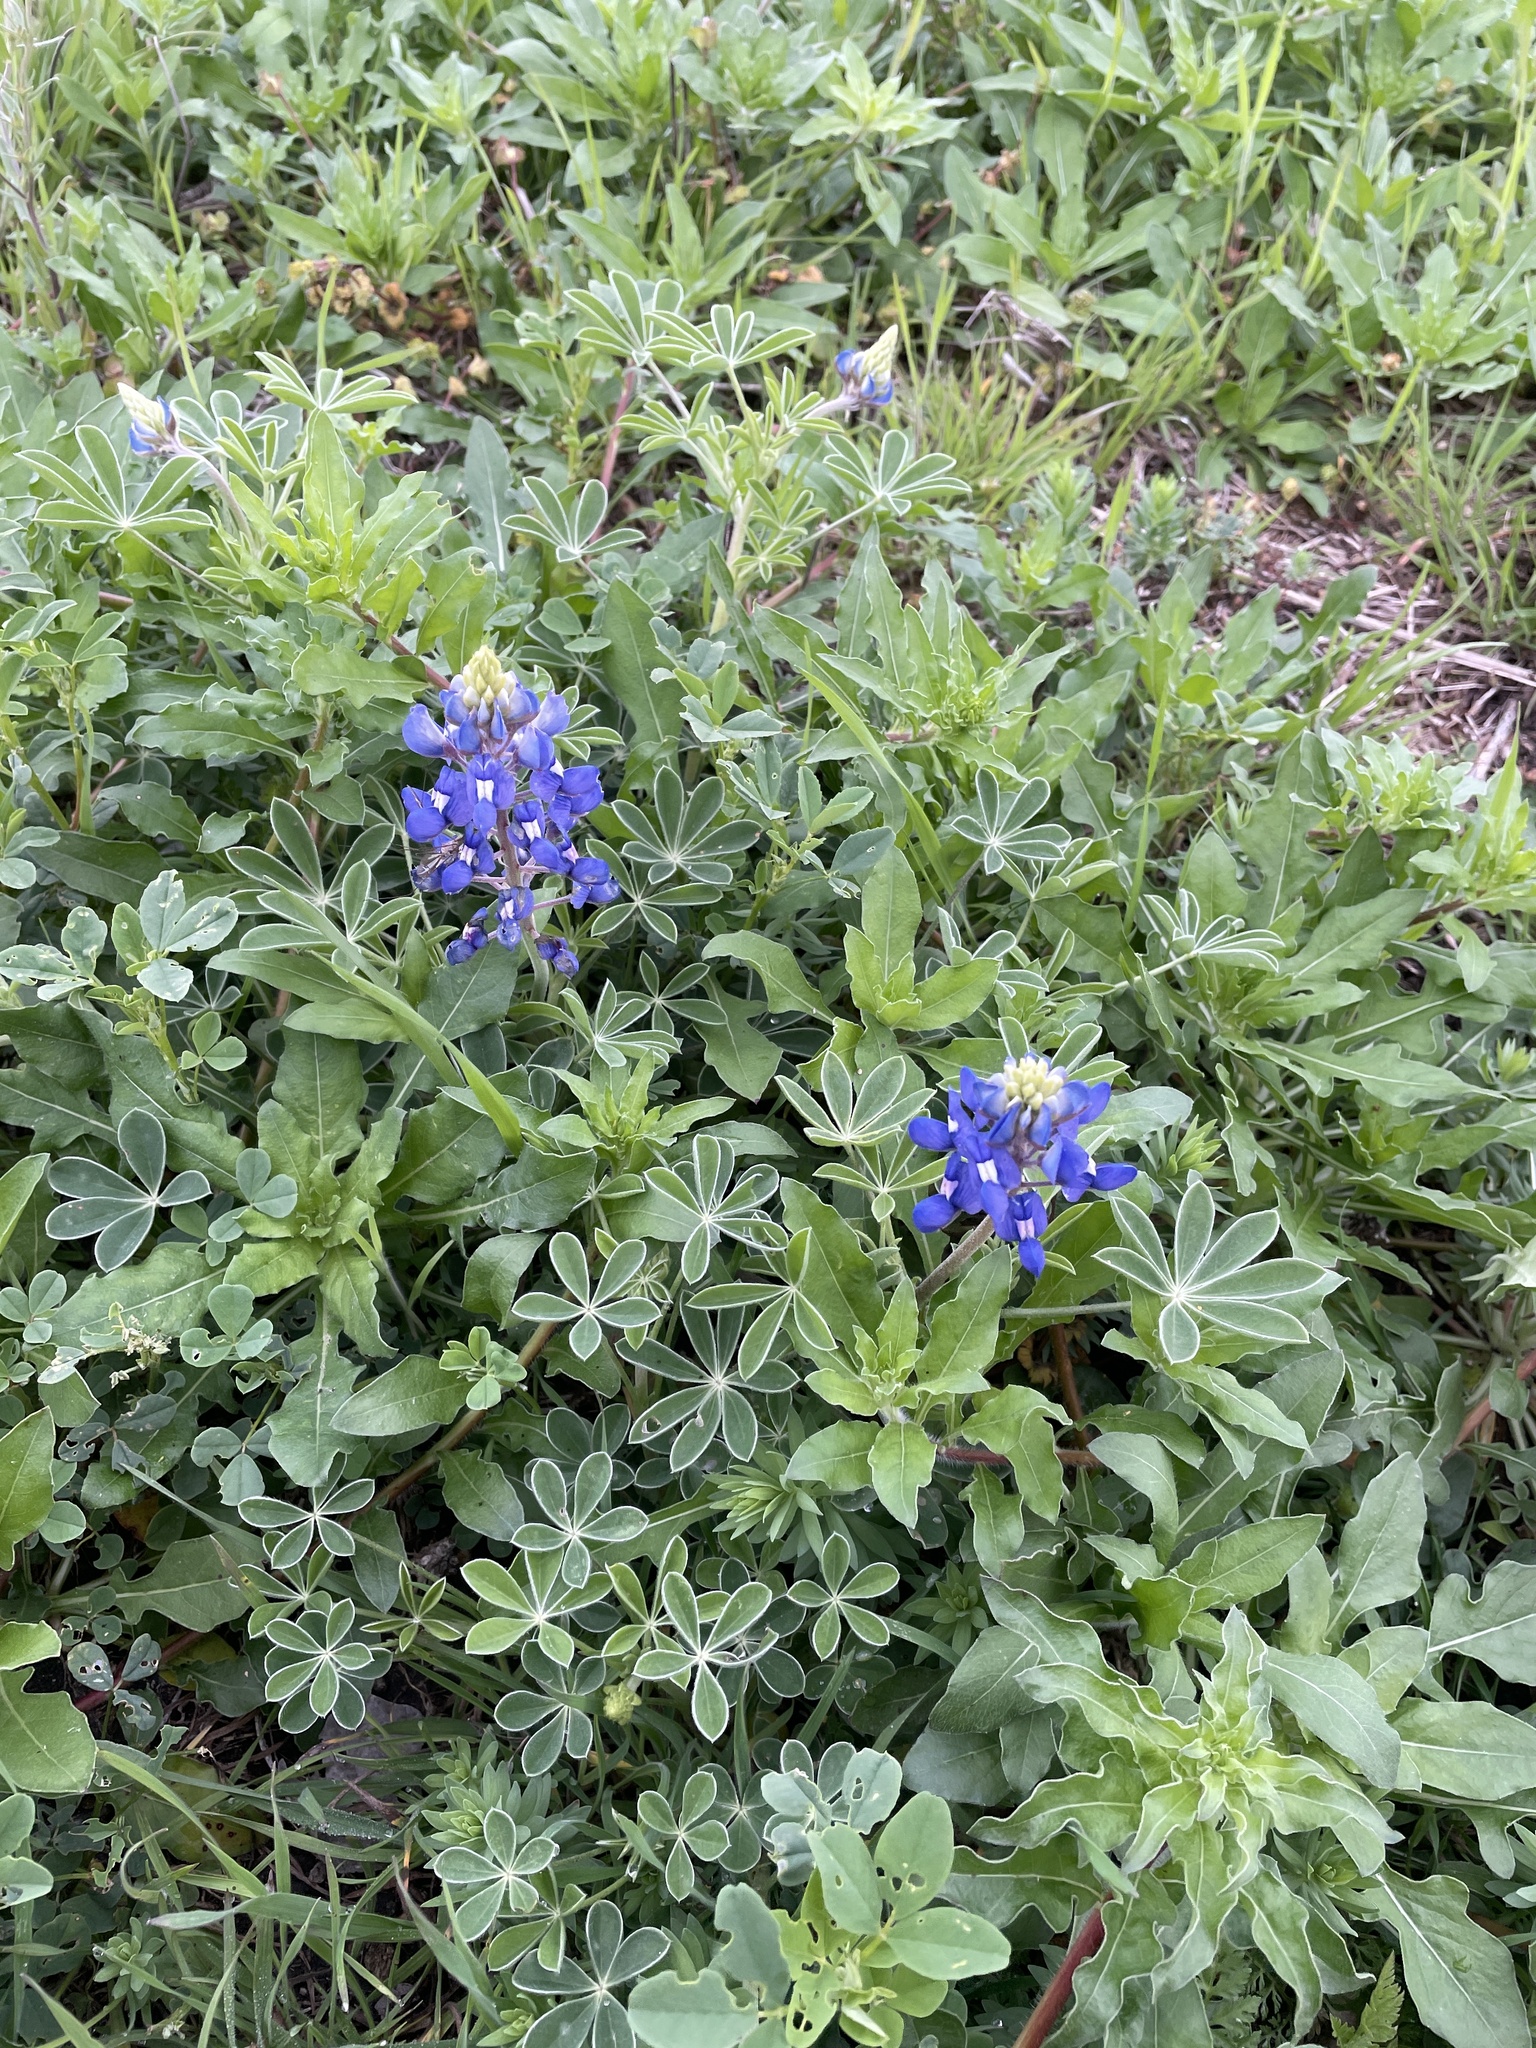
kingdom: Plantae
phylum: Tracheophyta
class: Magnoliopsida
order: Fabales
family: Fabaceae
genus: Lupinus
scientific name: Lupinus texensis
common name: Texas bluebonnet
